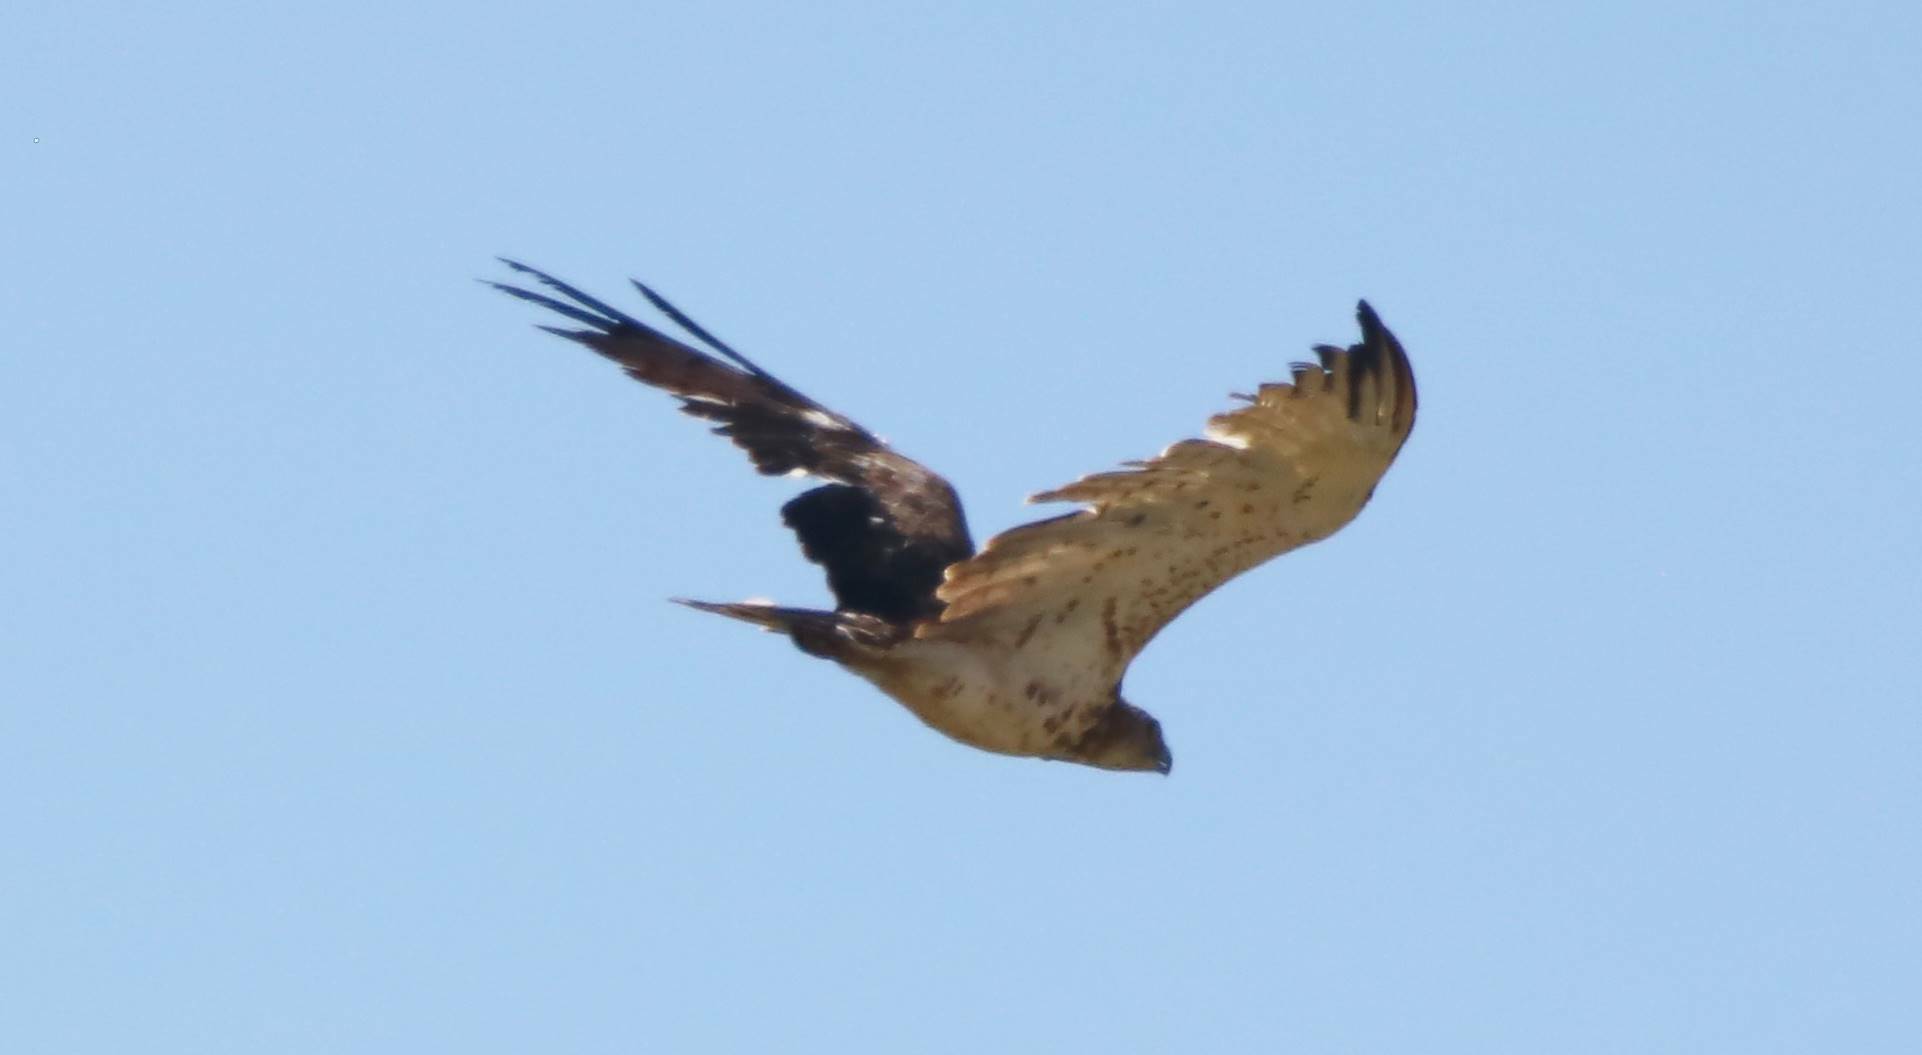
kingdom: Animalia
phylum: Chordata
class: Aves
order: Accipitriformes
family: Accipitridae
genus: Circaetus
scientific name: Circaetus gallicus
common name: Short-toed snake eagle
